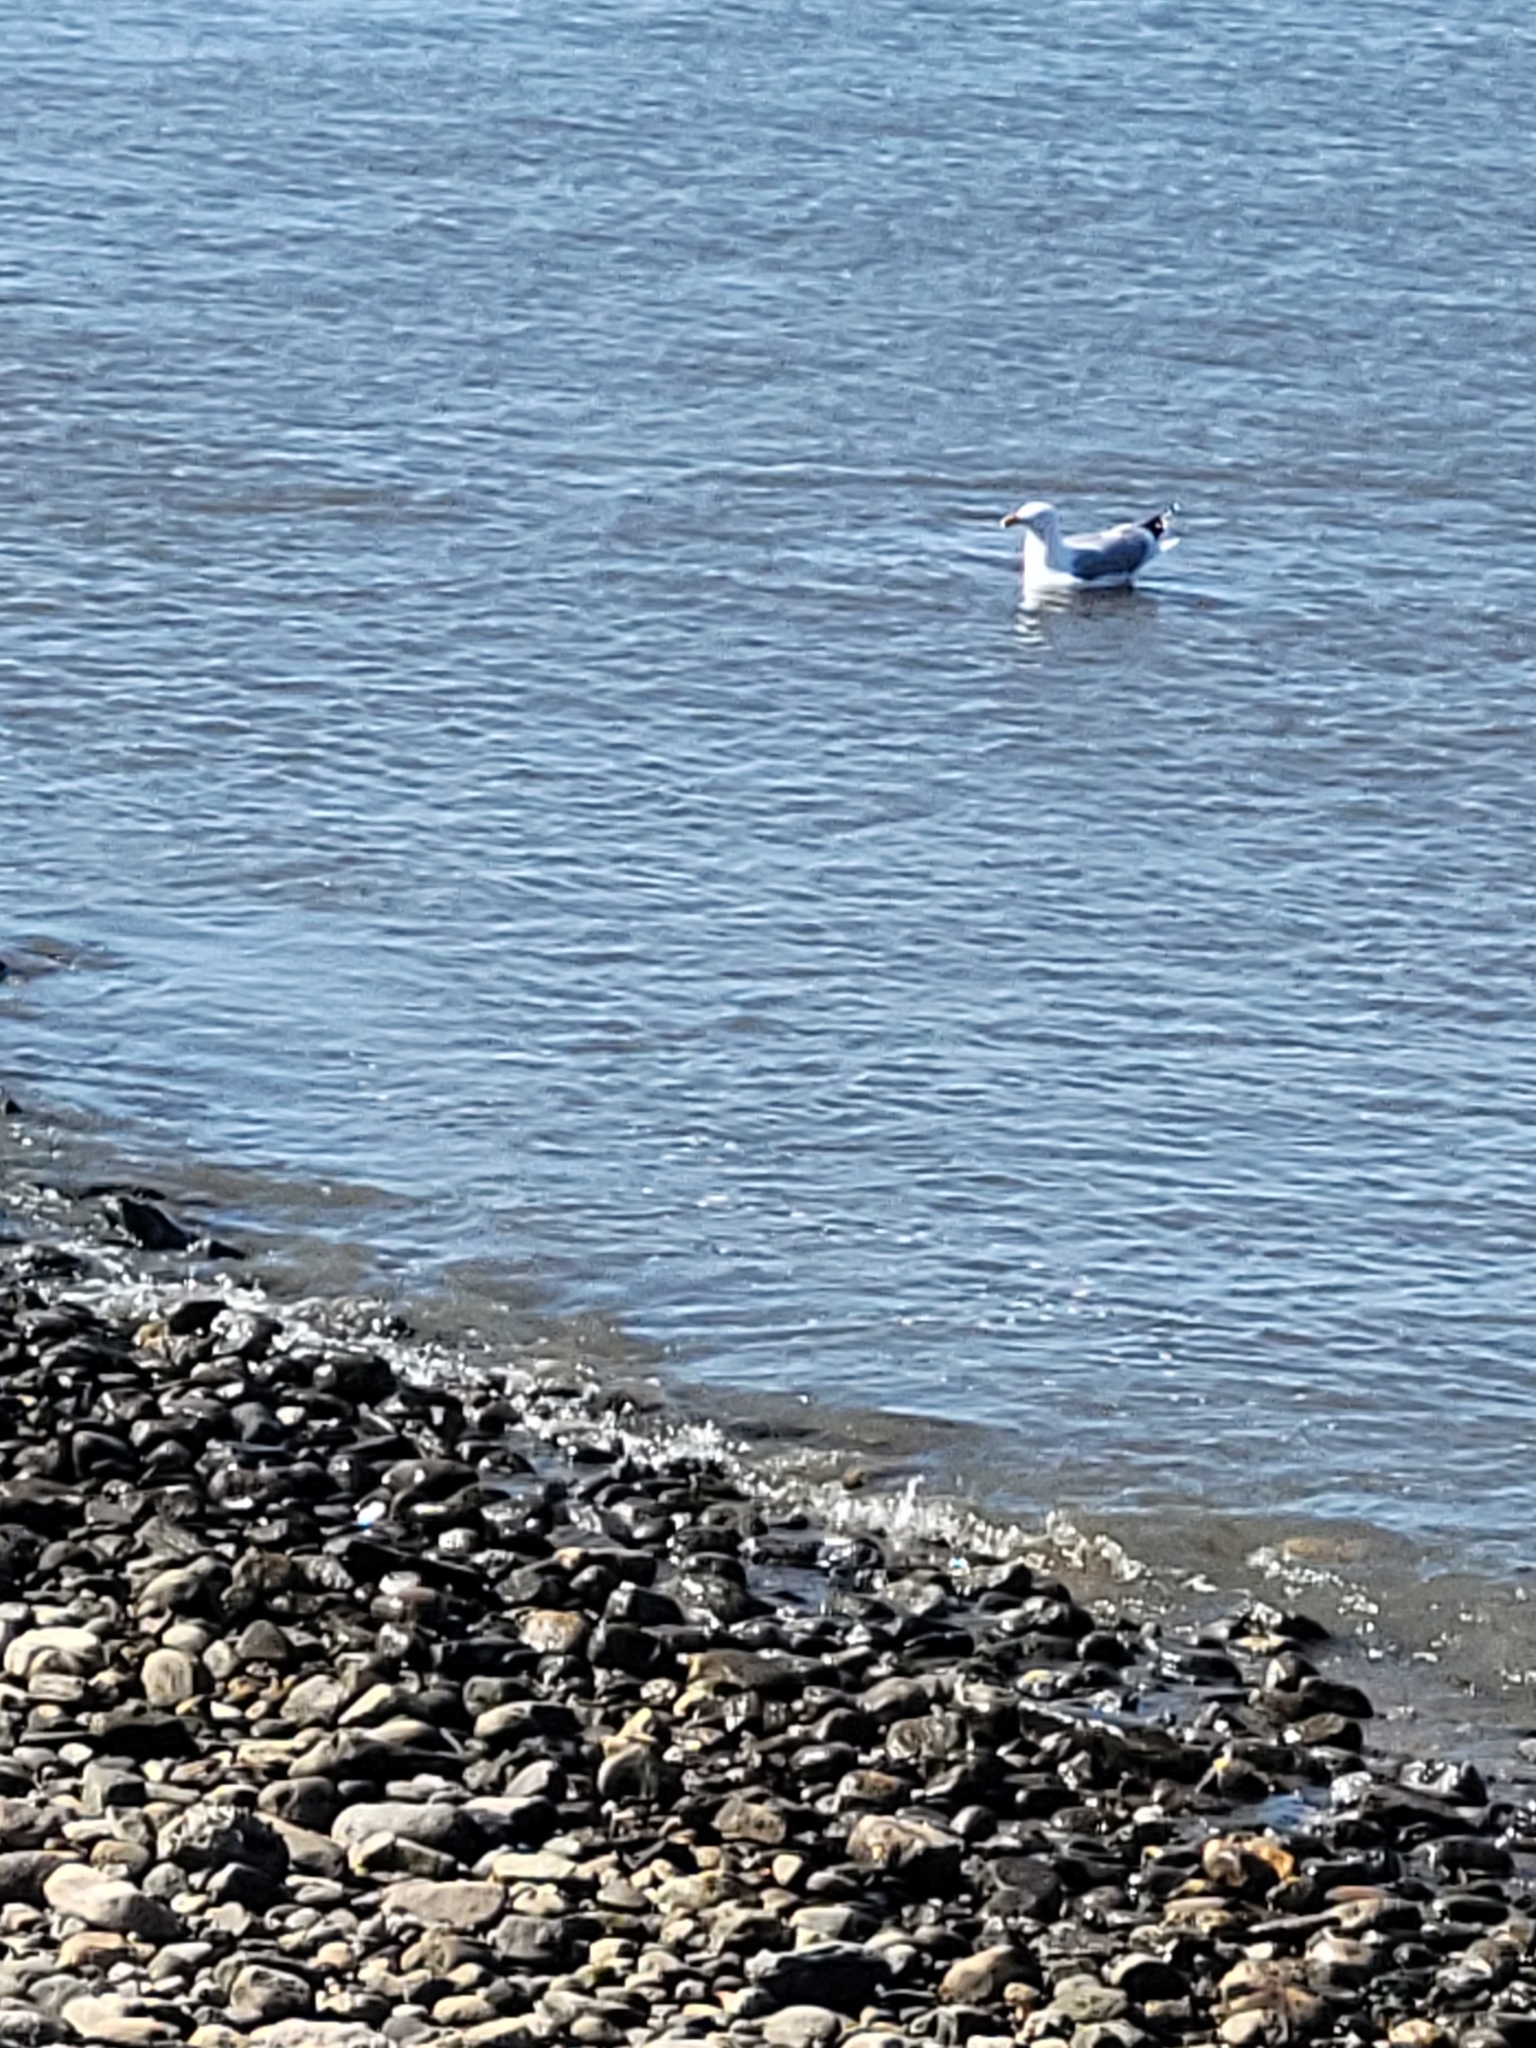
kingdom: Animalia
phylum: Chordata
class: Aves
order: Charadriiformes
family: Laridae
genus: Larus
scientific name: Larus argentatus
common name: Herring gull
